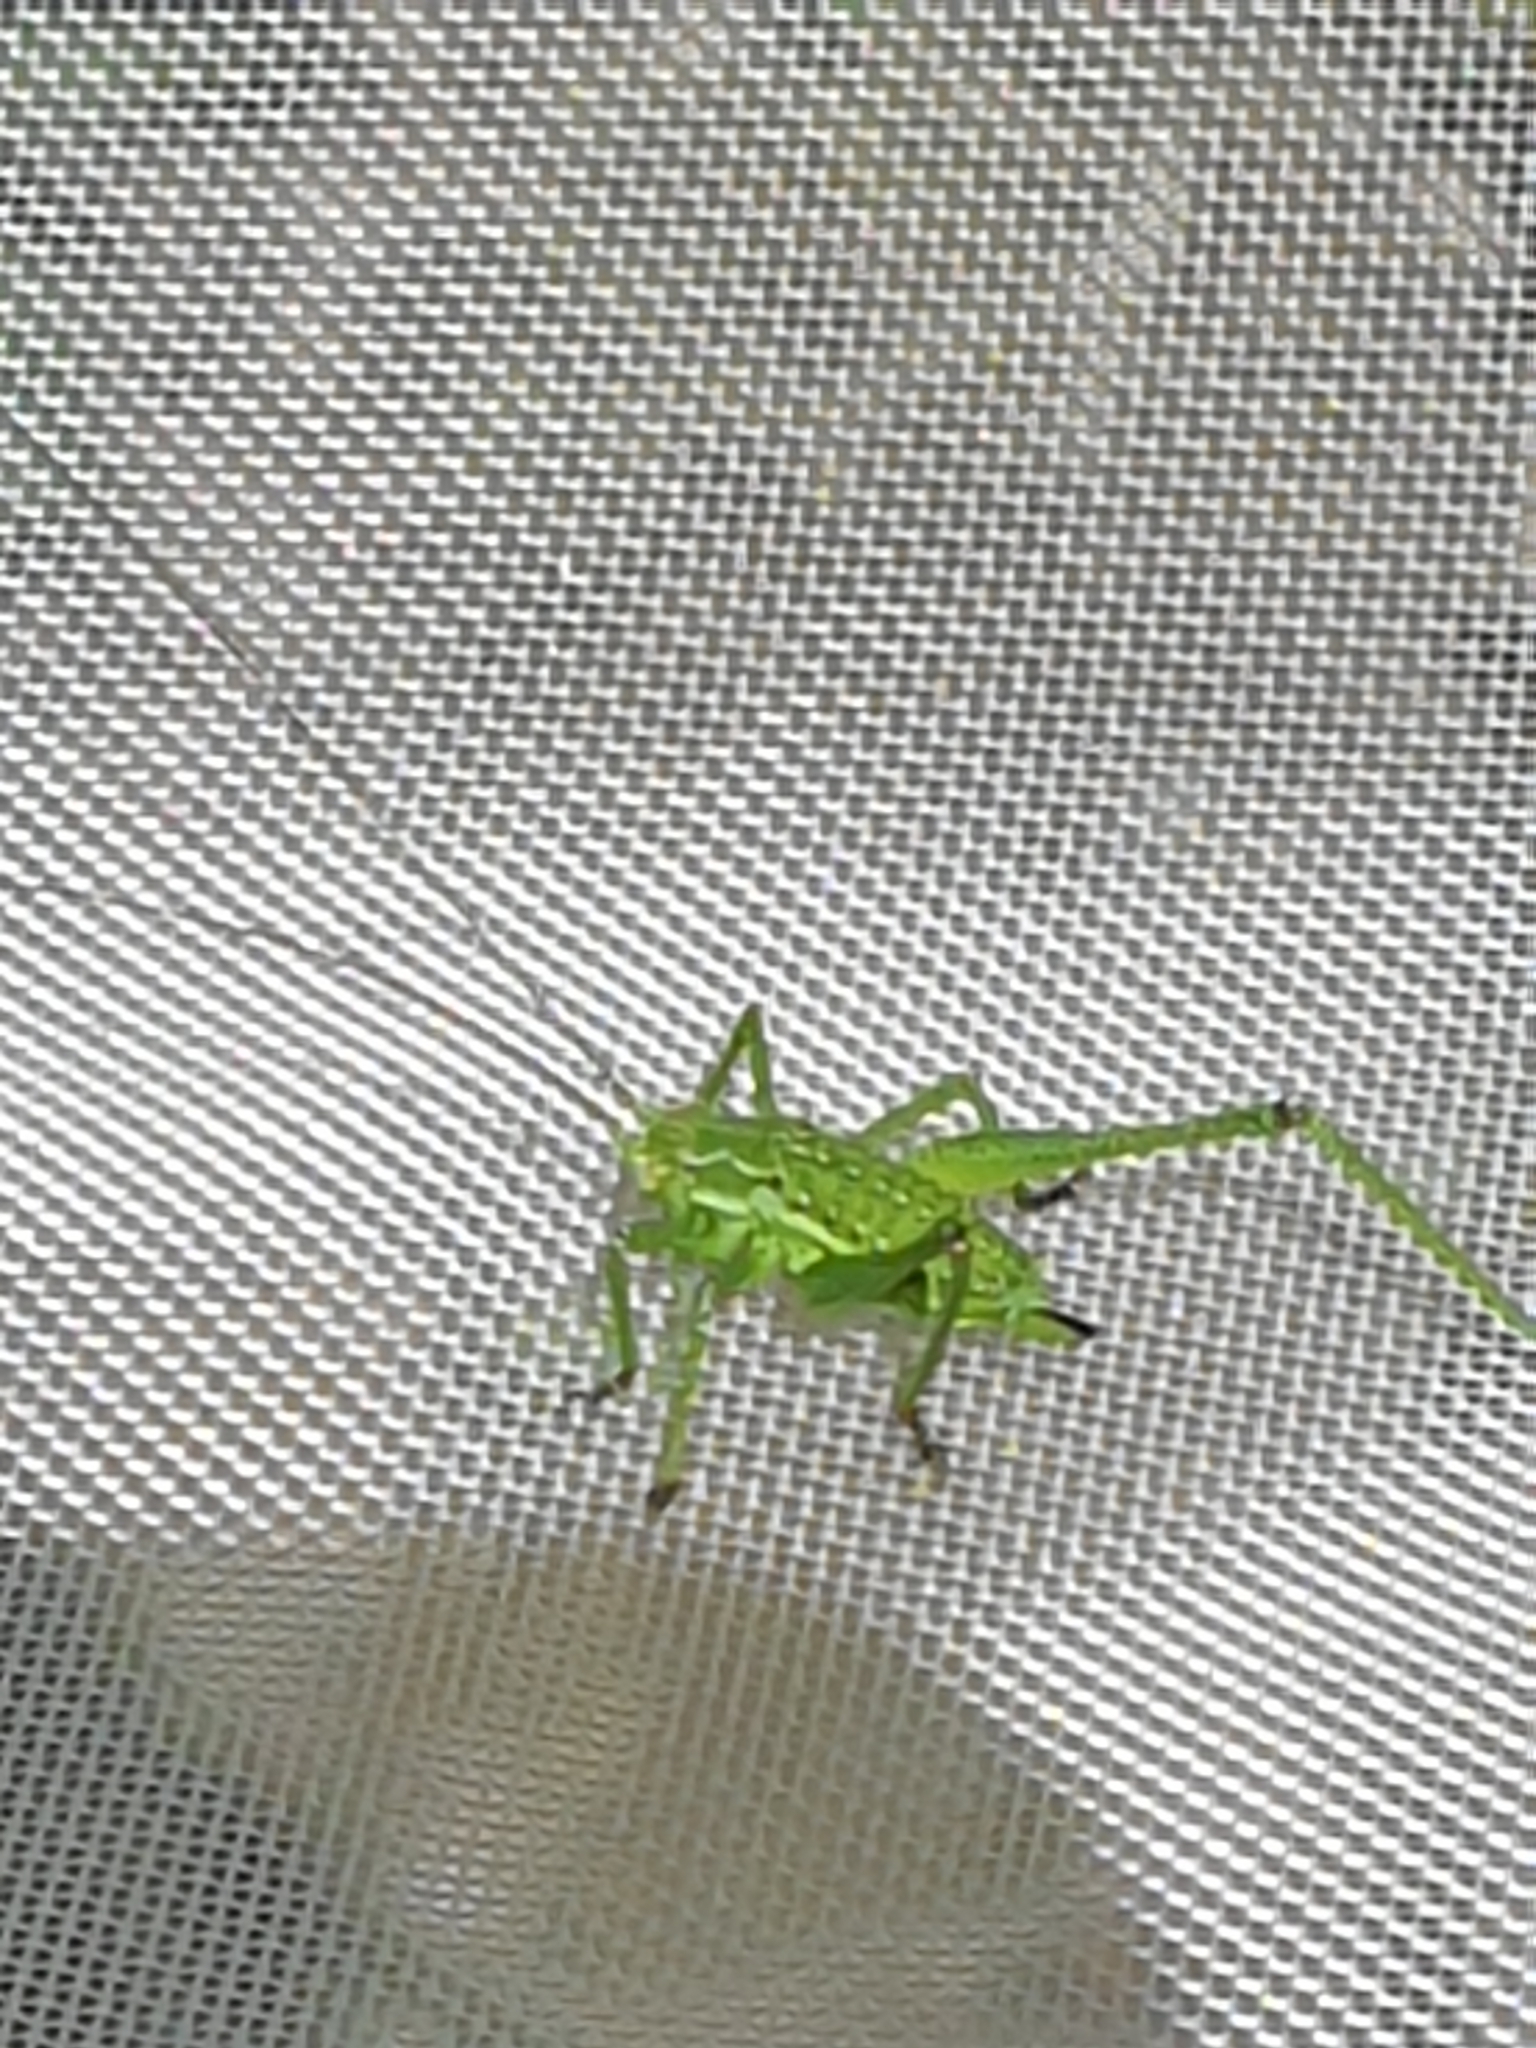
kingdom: Animalia
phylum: Arthropoda
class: Insecta
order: Orthoptera
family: Tettigoniidae
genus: Leptophyes
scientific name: Leptophyes albovittata
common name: Striped bush-cricket
